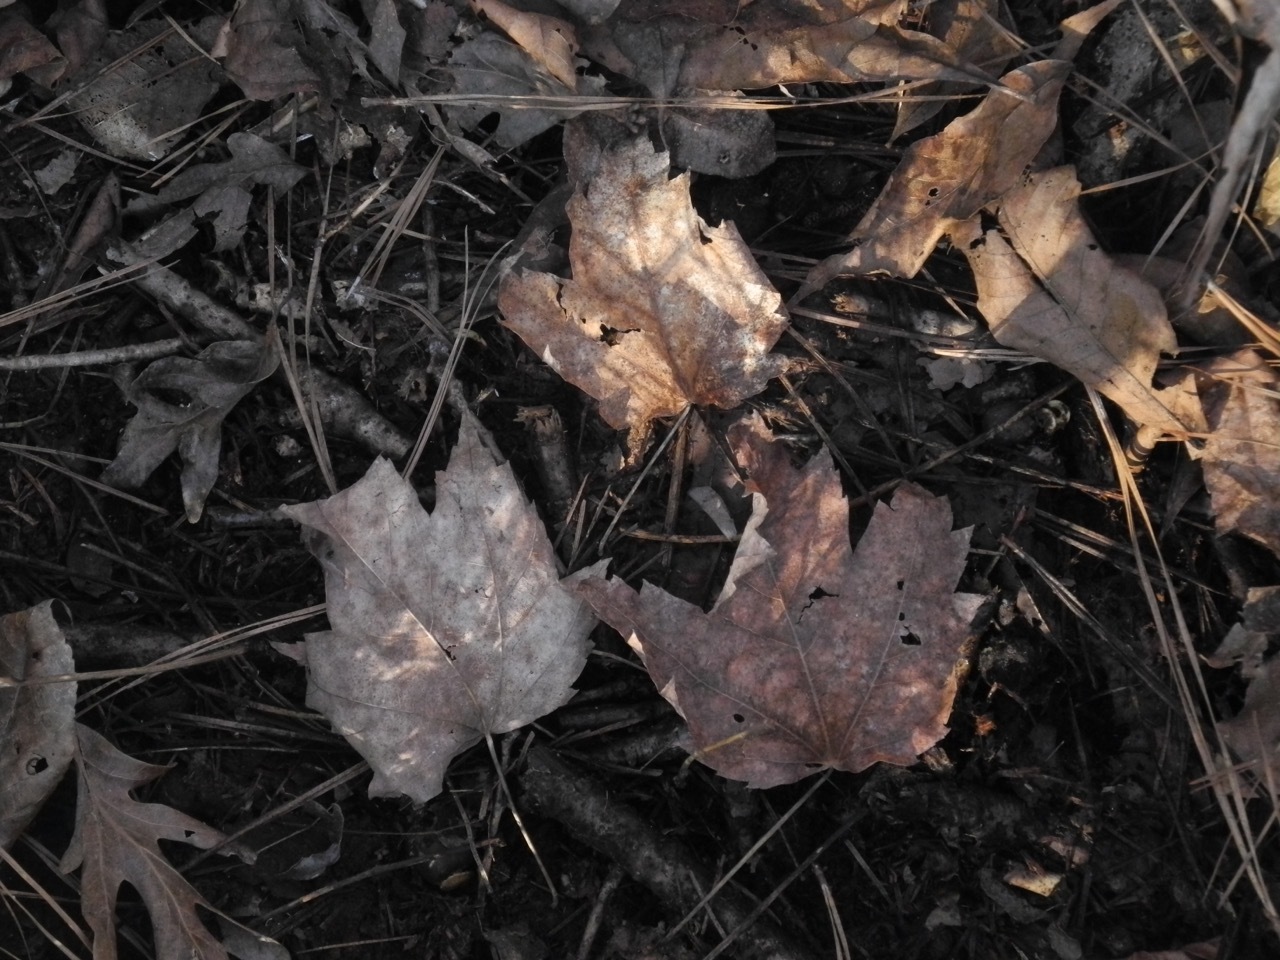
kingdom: Plantae
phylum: Tracheophyta
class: Magnoliopsida
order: Sapindales
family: Sapindaceae
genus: Acer
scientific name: Acer freemanii
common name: Freeman maple
